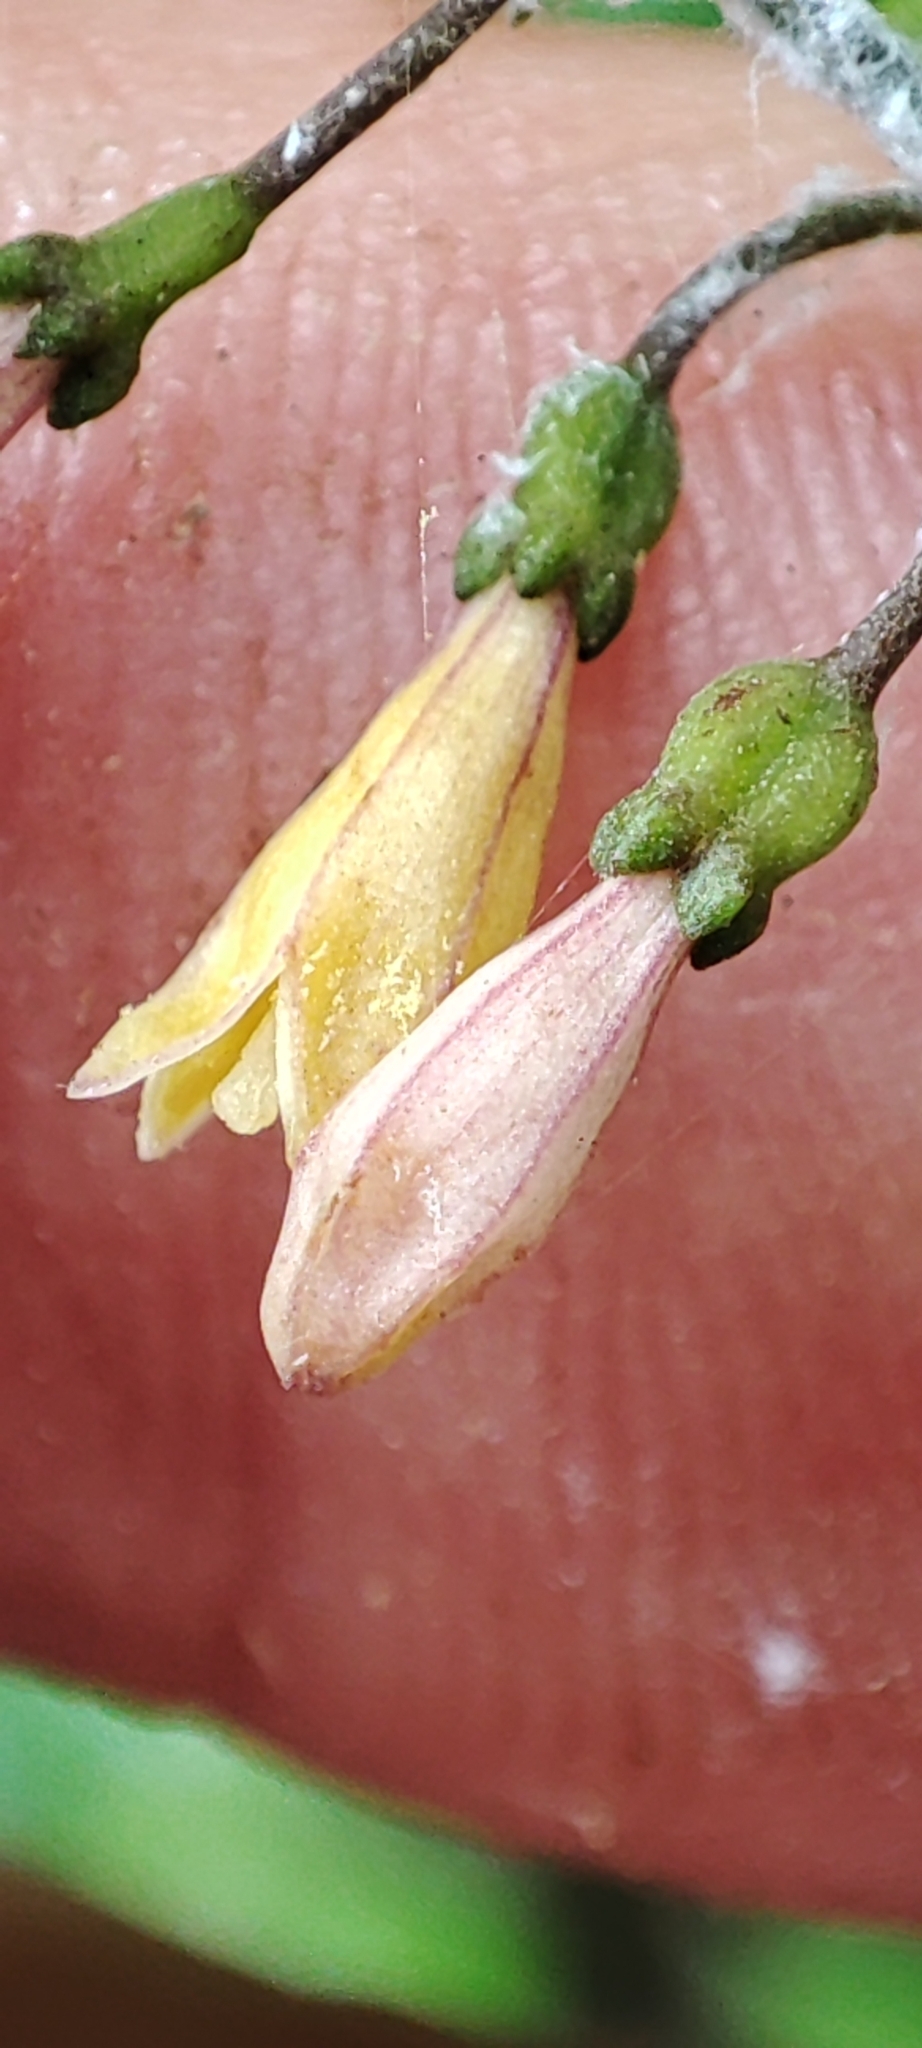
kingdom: Plantae
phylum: Tracheophyta
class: Magnoliopsida
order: Gentianales
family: Rubiaceae
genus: Chiococca
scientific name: Chiococca alba
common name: Snowberry
